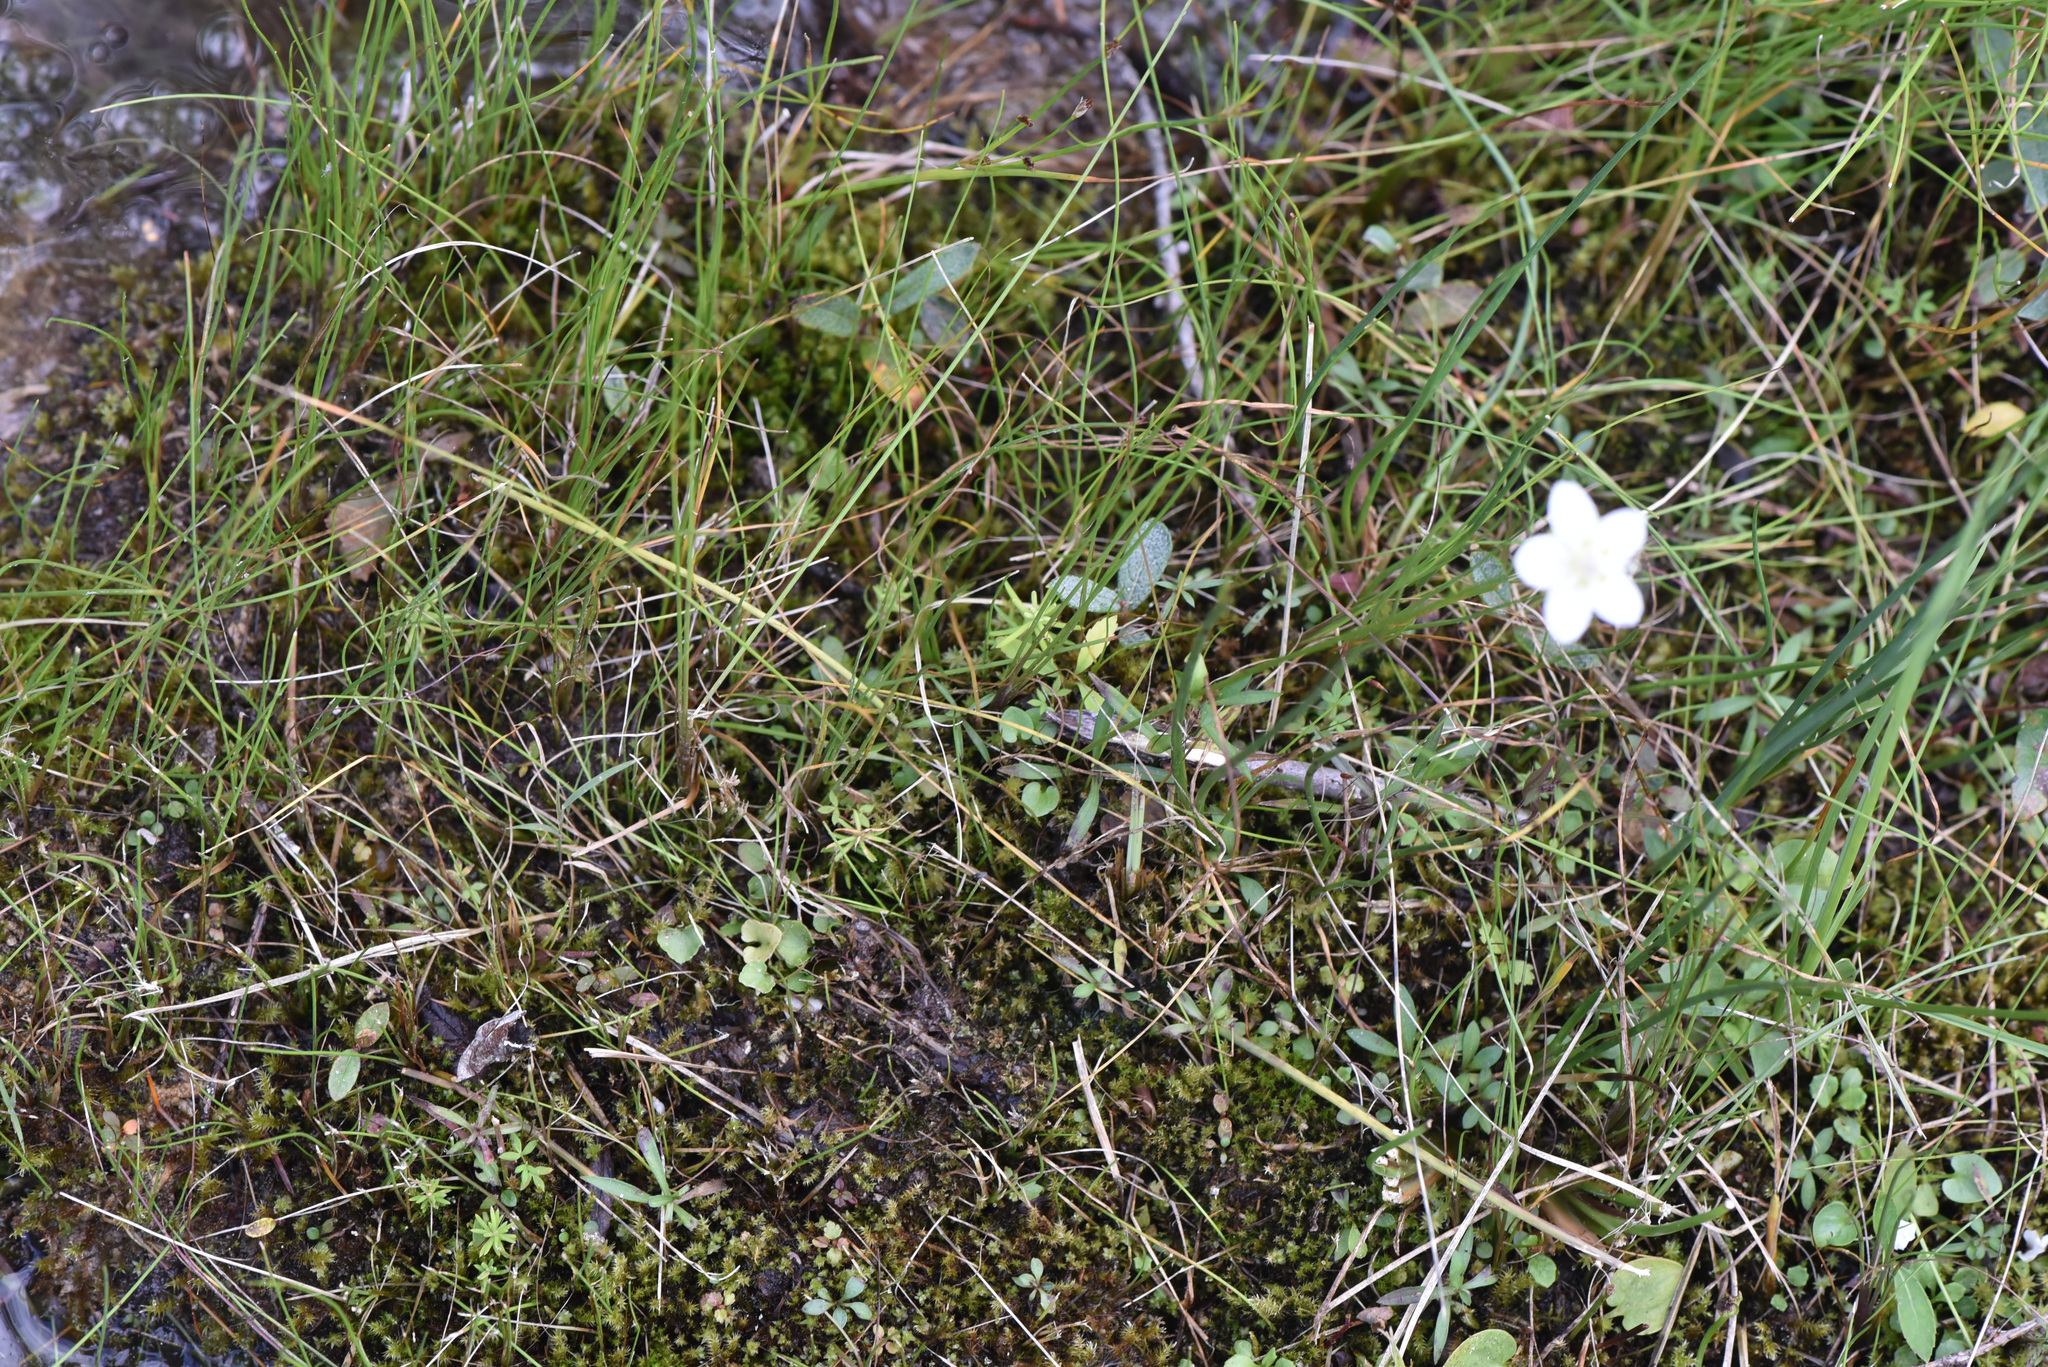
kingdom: Plantae
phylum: Tracheophyta
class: Magnoliopsida
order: Celastrales
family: Parnassiaceae
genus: Parnassia
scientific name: Parnassia palustris
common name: Grass-of-parnassus
